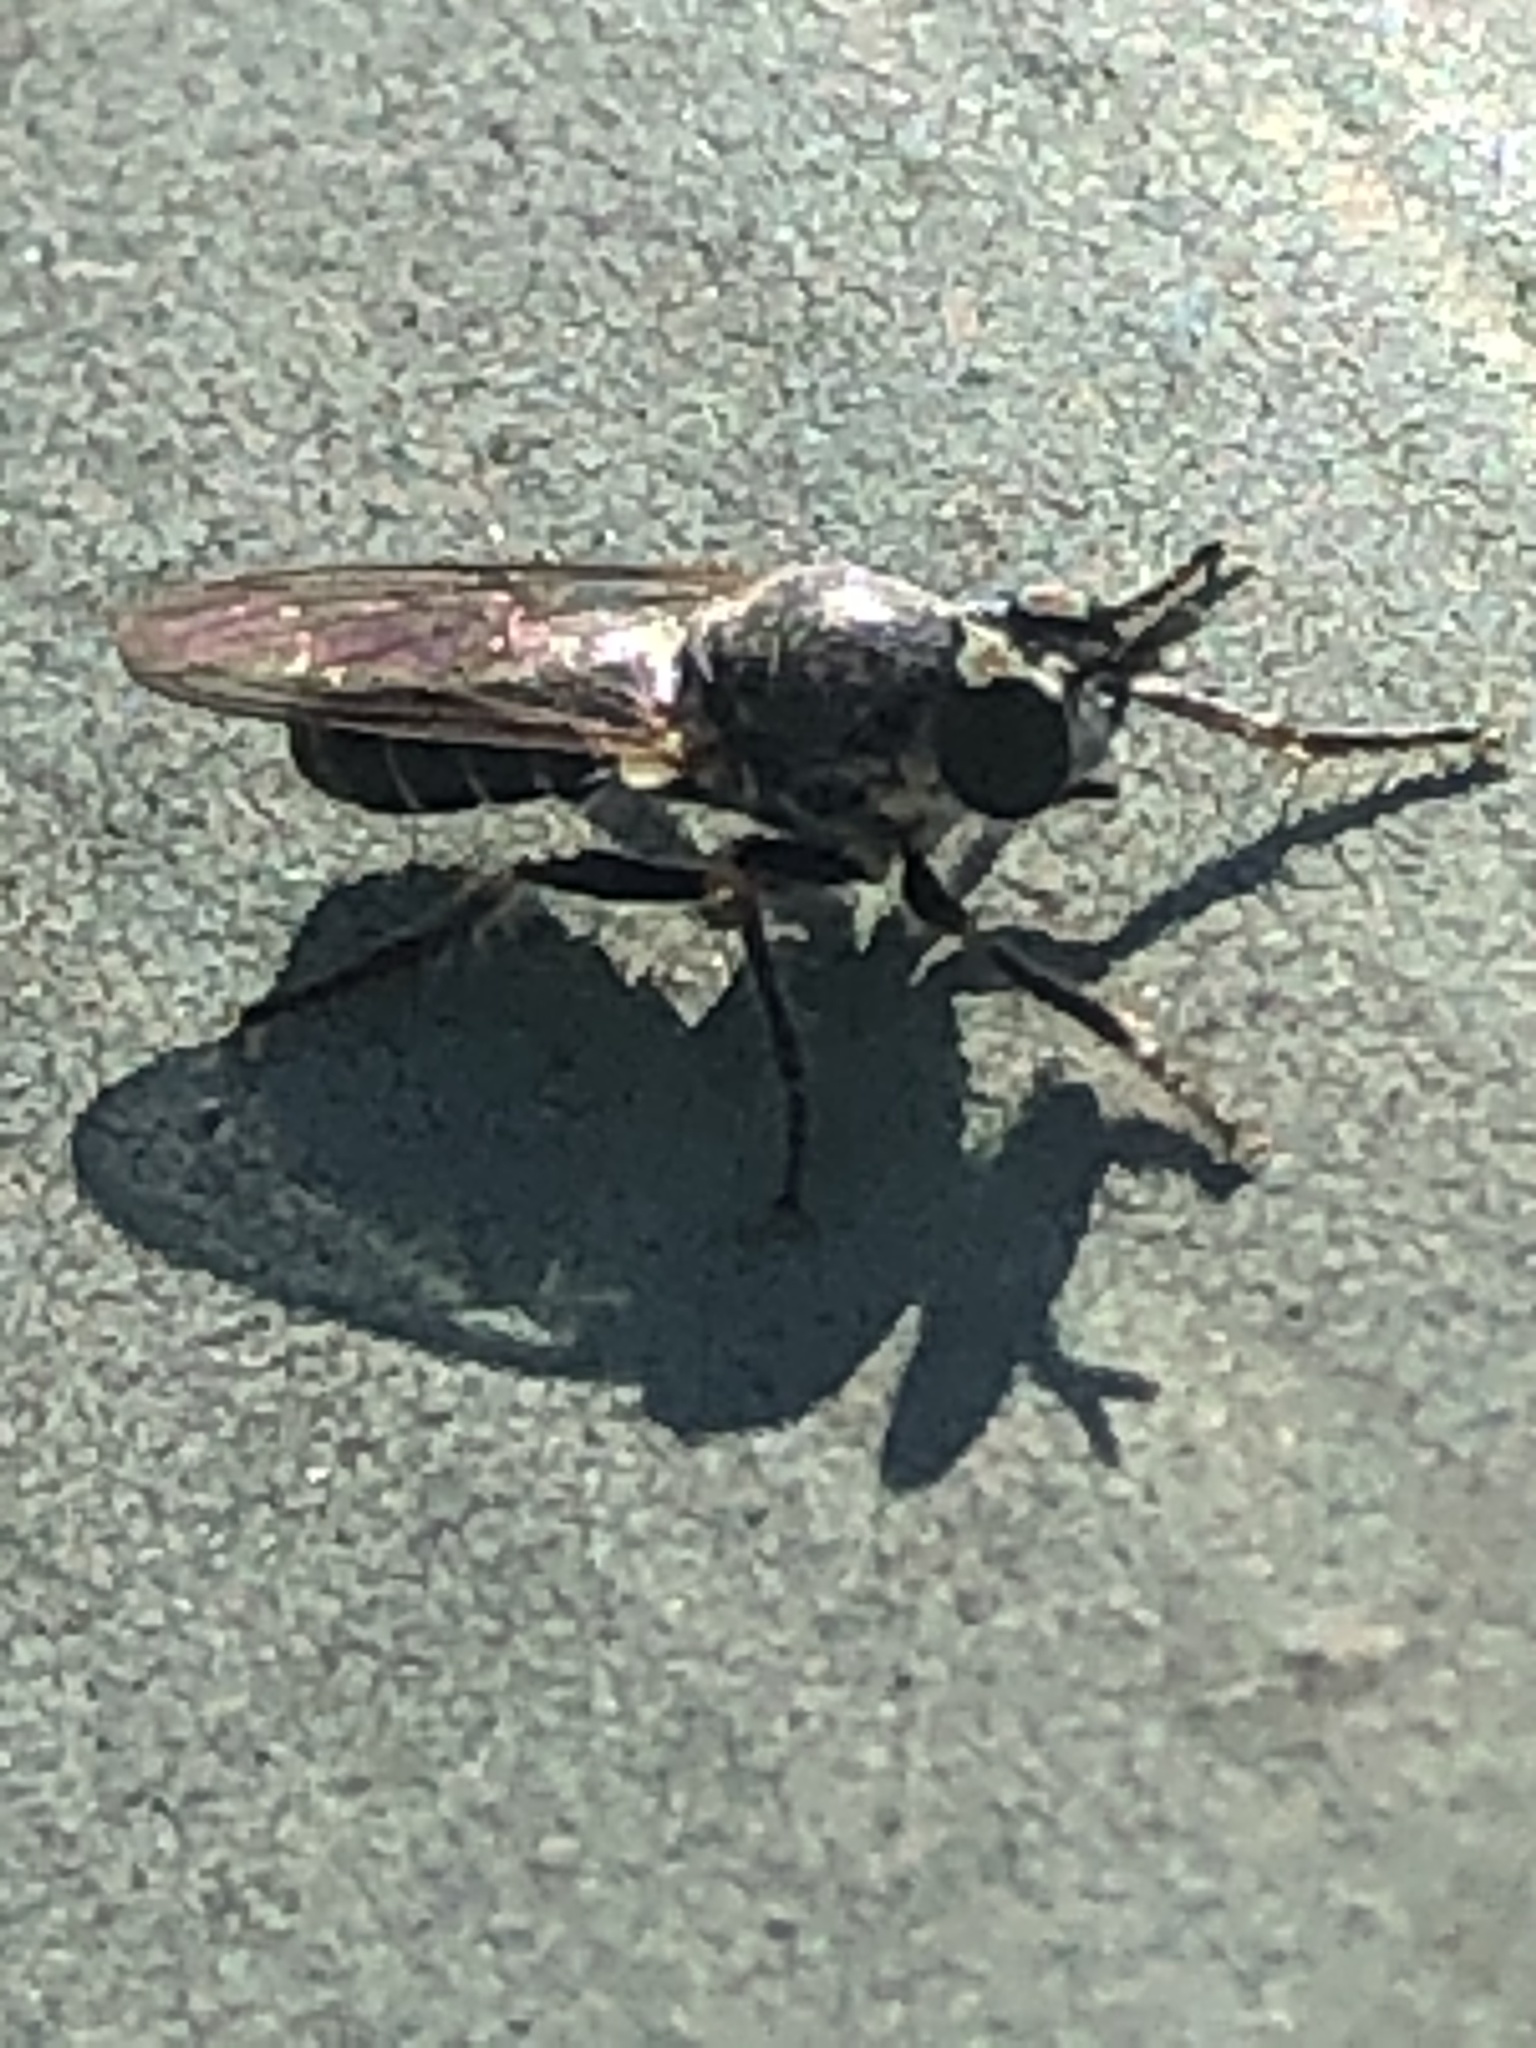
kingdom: Animalia
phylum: Arthropoda
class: Insecta
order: Diptera
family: Asilidae
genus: Atomosia
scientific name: Atomosia puella
